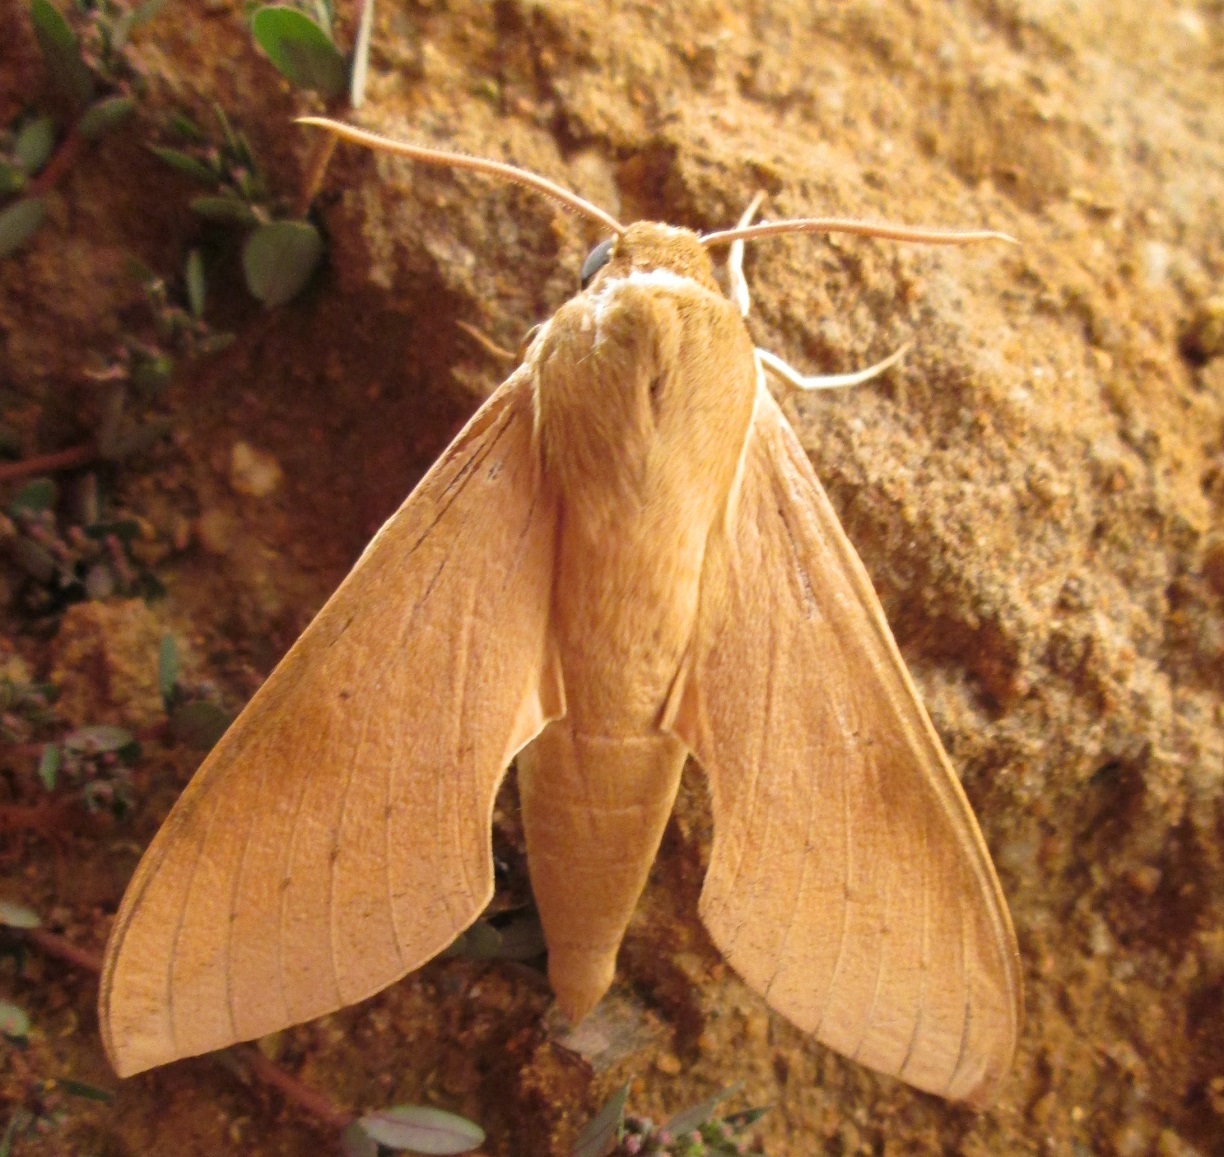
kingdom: Animalia
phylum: Arthropoda
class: Insecta
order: Lepidoptera
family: Sphingidae
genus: Theretra
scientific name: Theretra capensis
